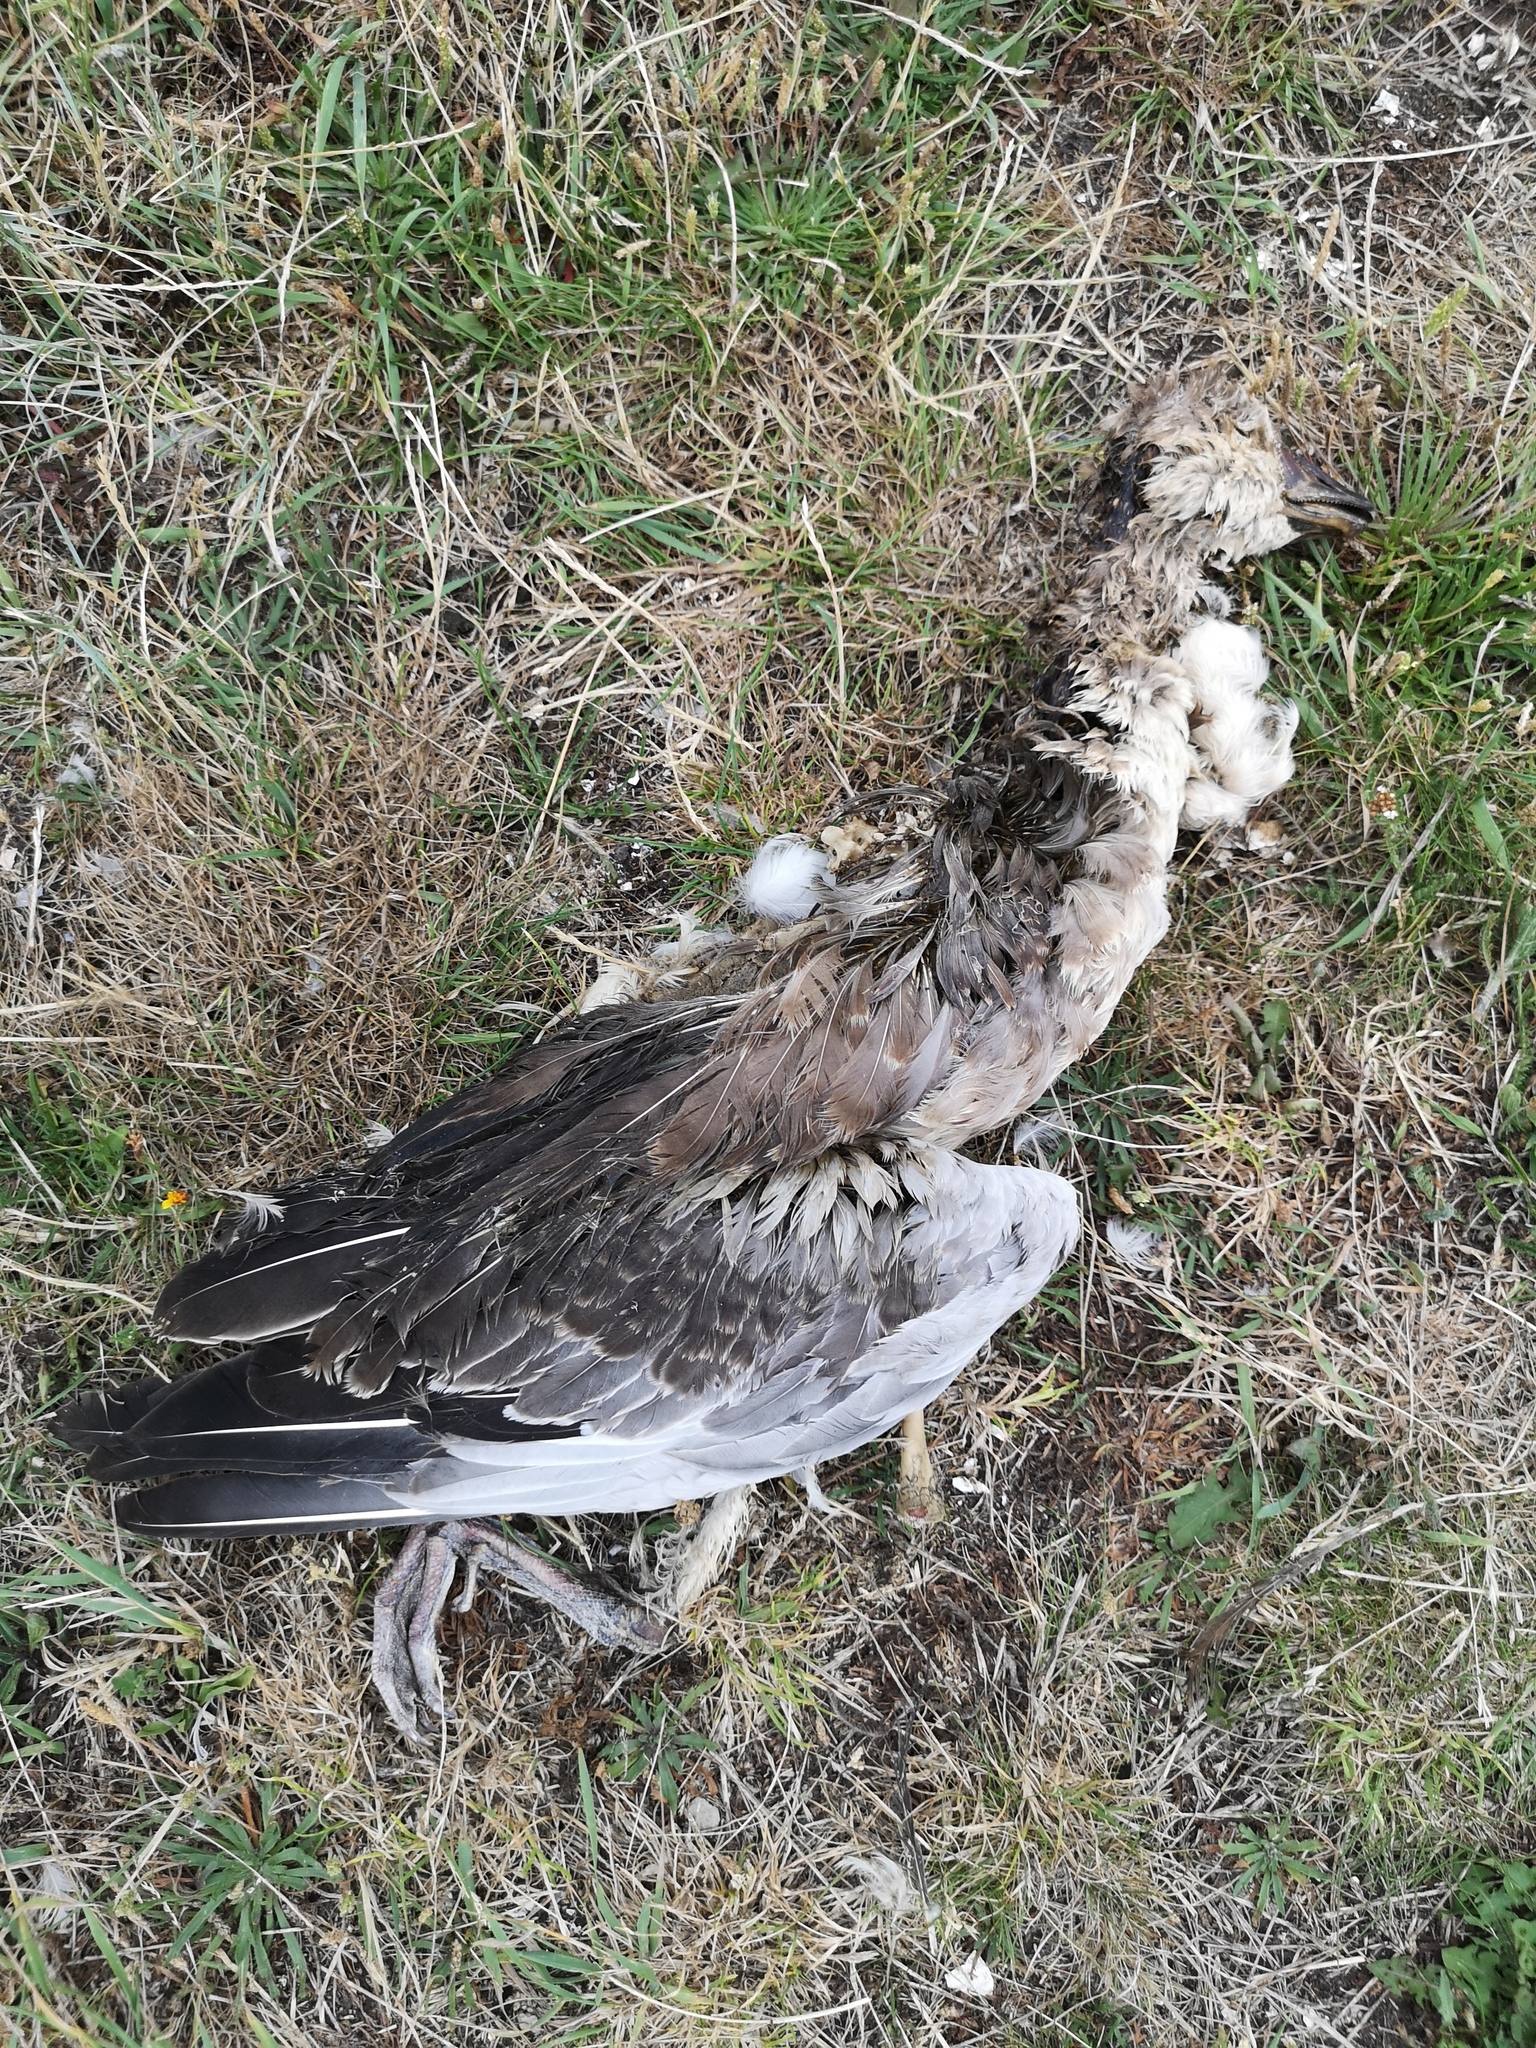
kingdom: Animalia
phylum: Chordata
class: Aves
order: Anseriformes
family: Anatidae
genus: Branta
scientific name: Branta leucopsis
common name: Barnacle goose
